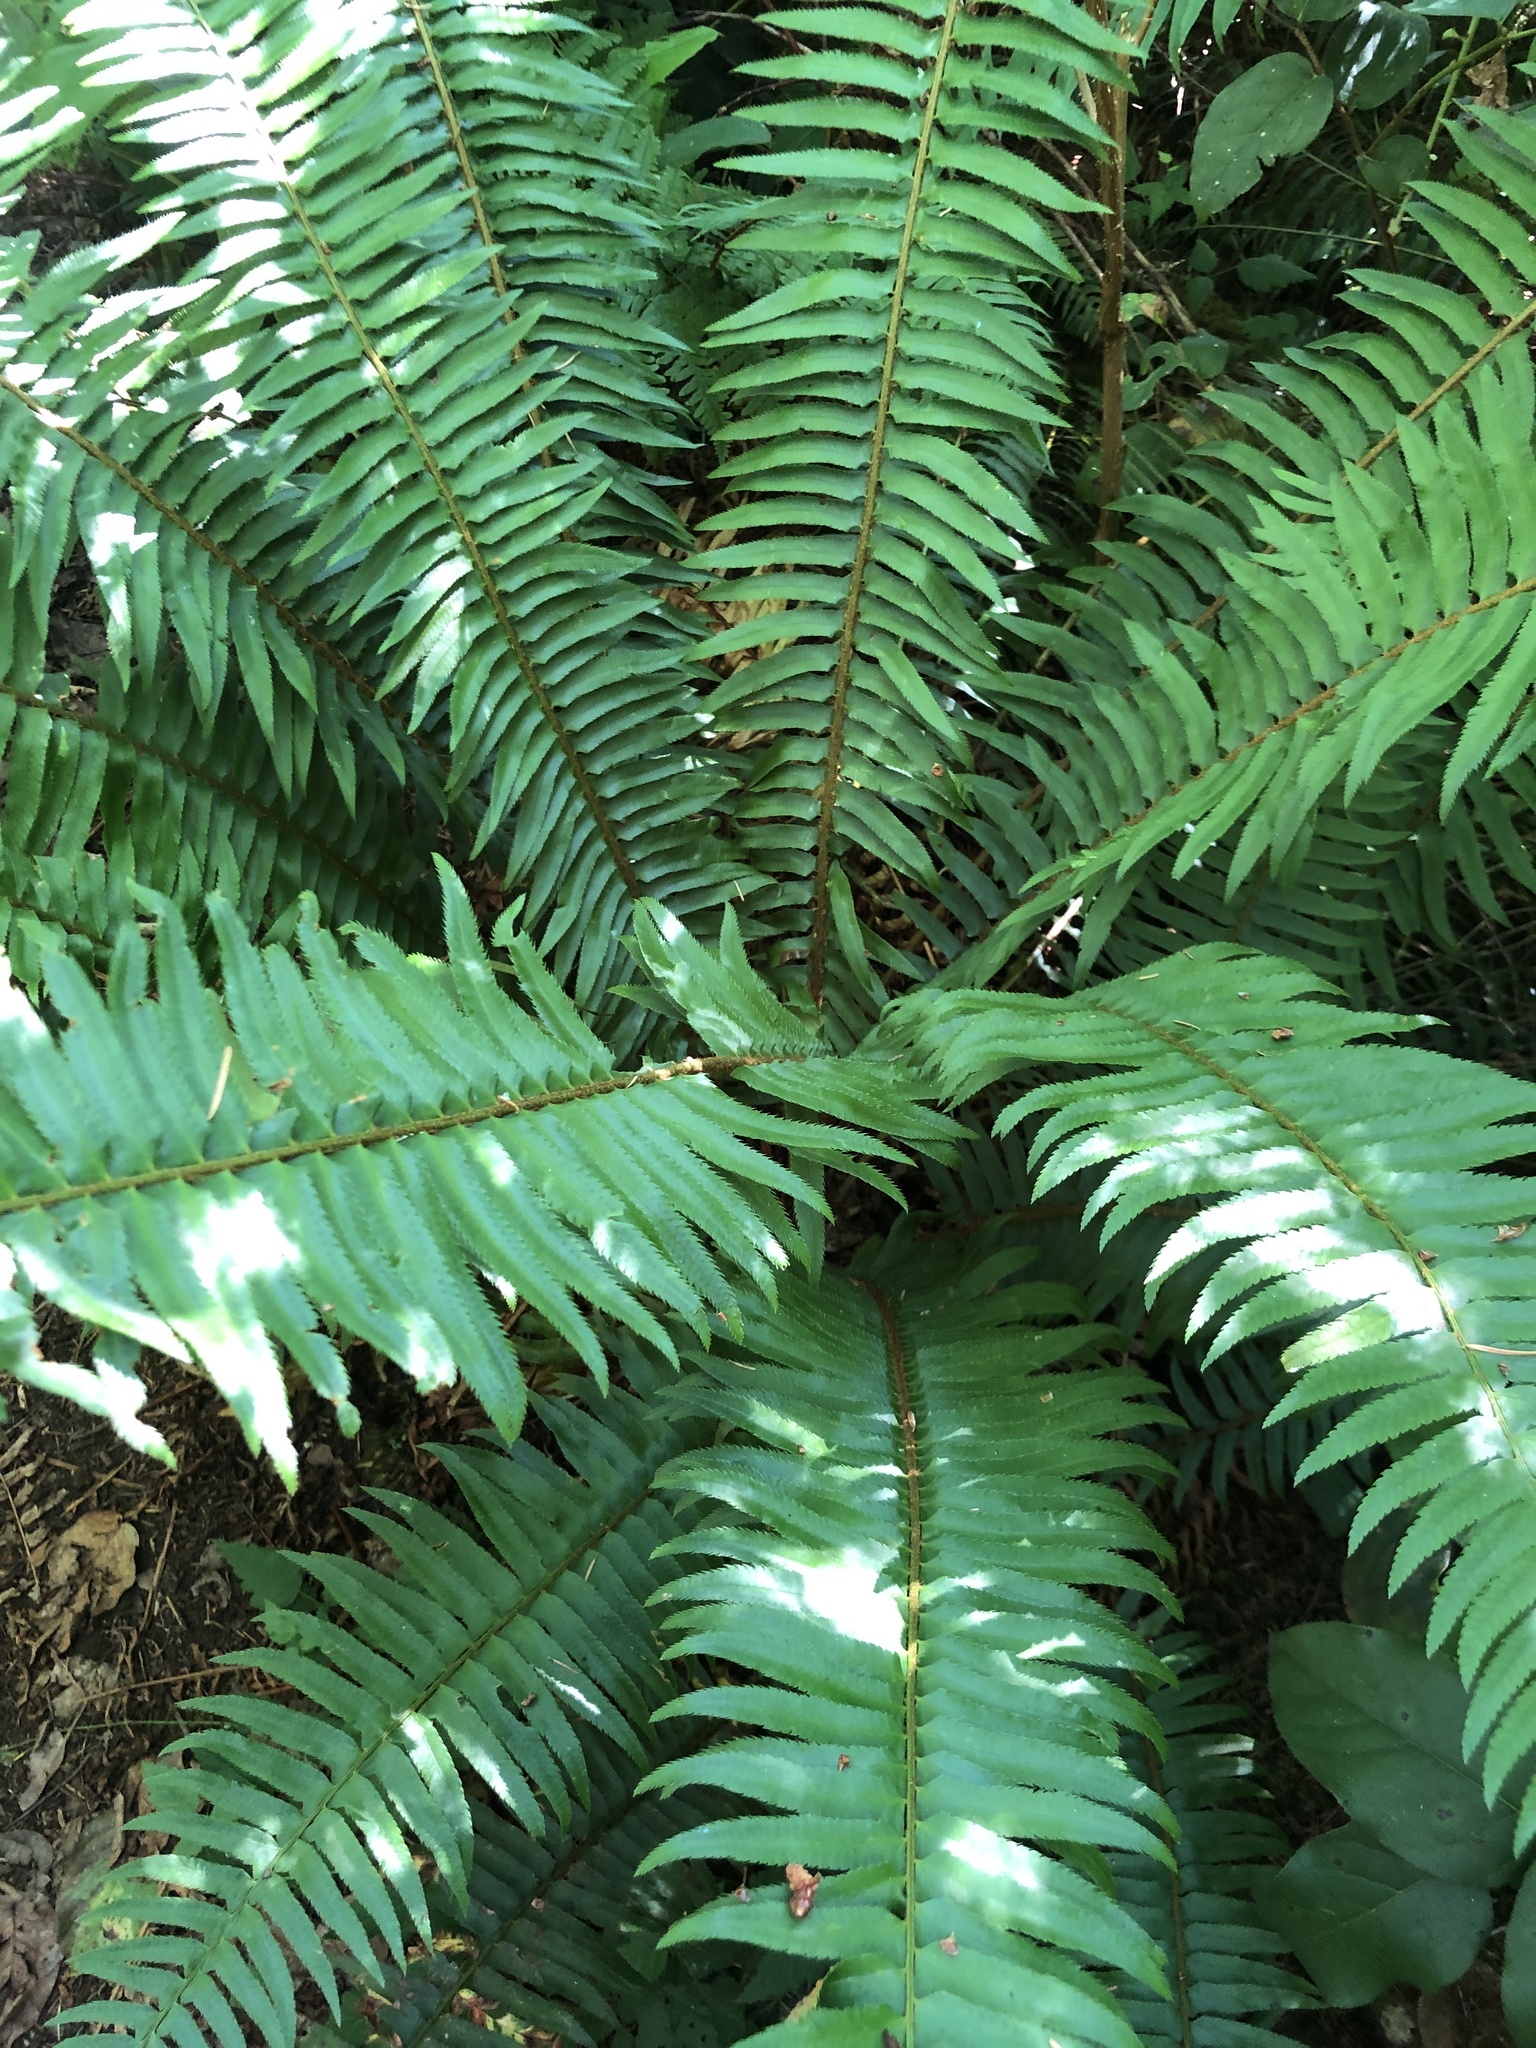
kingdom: Plantae
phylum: Tracheophyta
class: Polypodiopsida
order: Polypodiales
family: Dryopteridaceae
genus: Polystichum
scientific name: Polystichum munitum
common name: Western sword-fern
